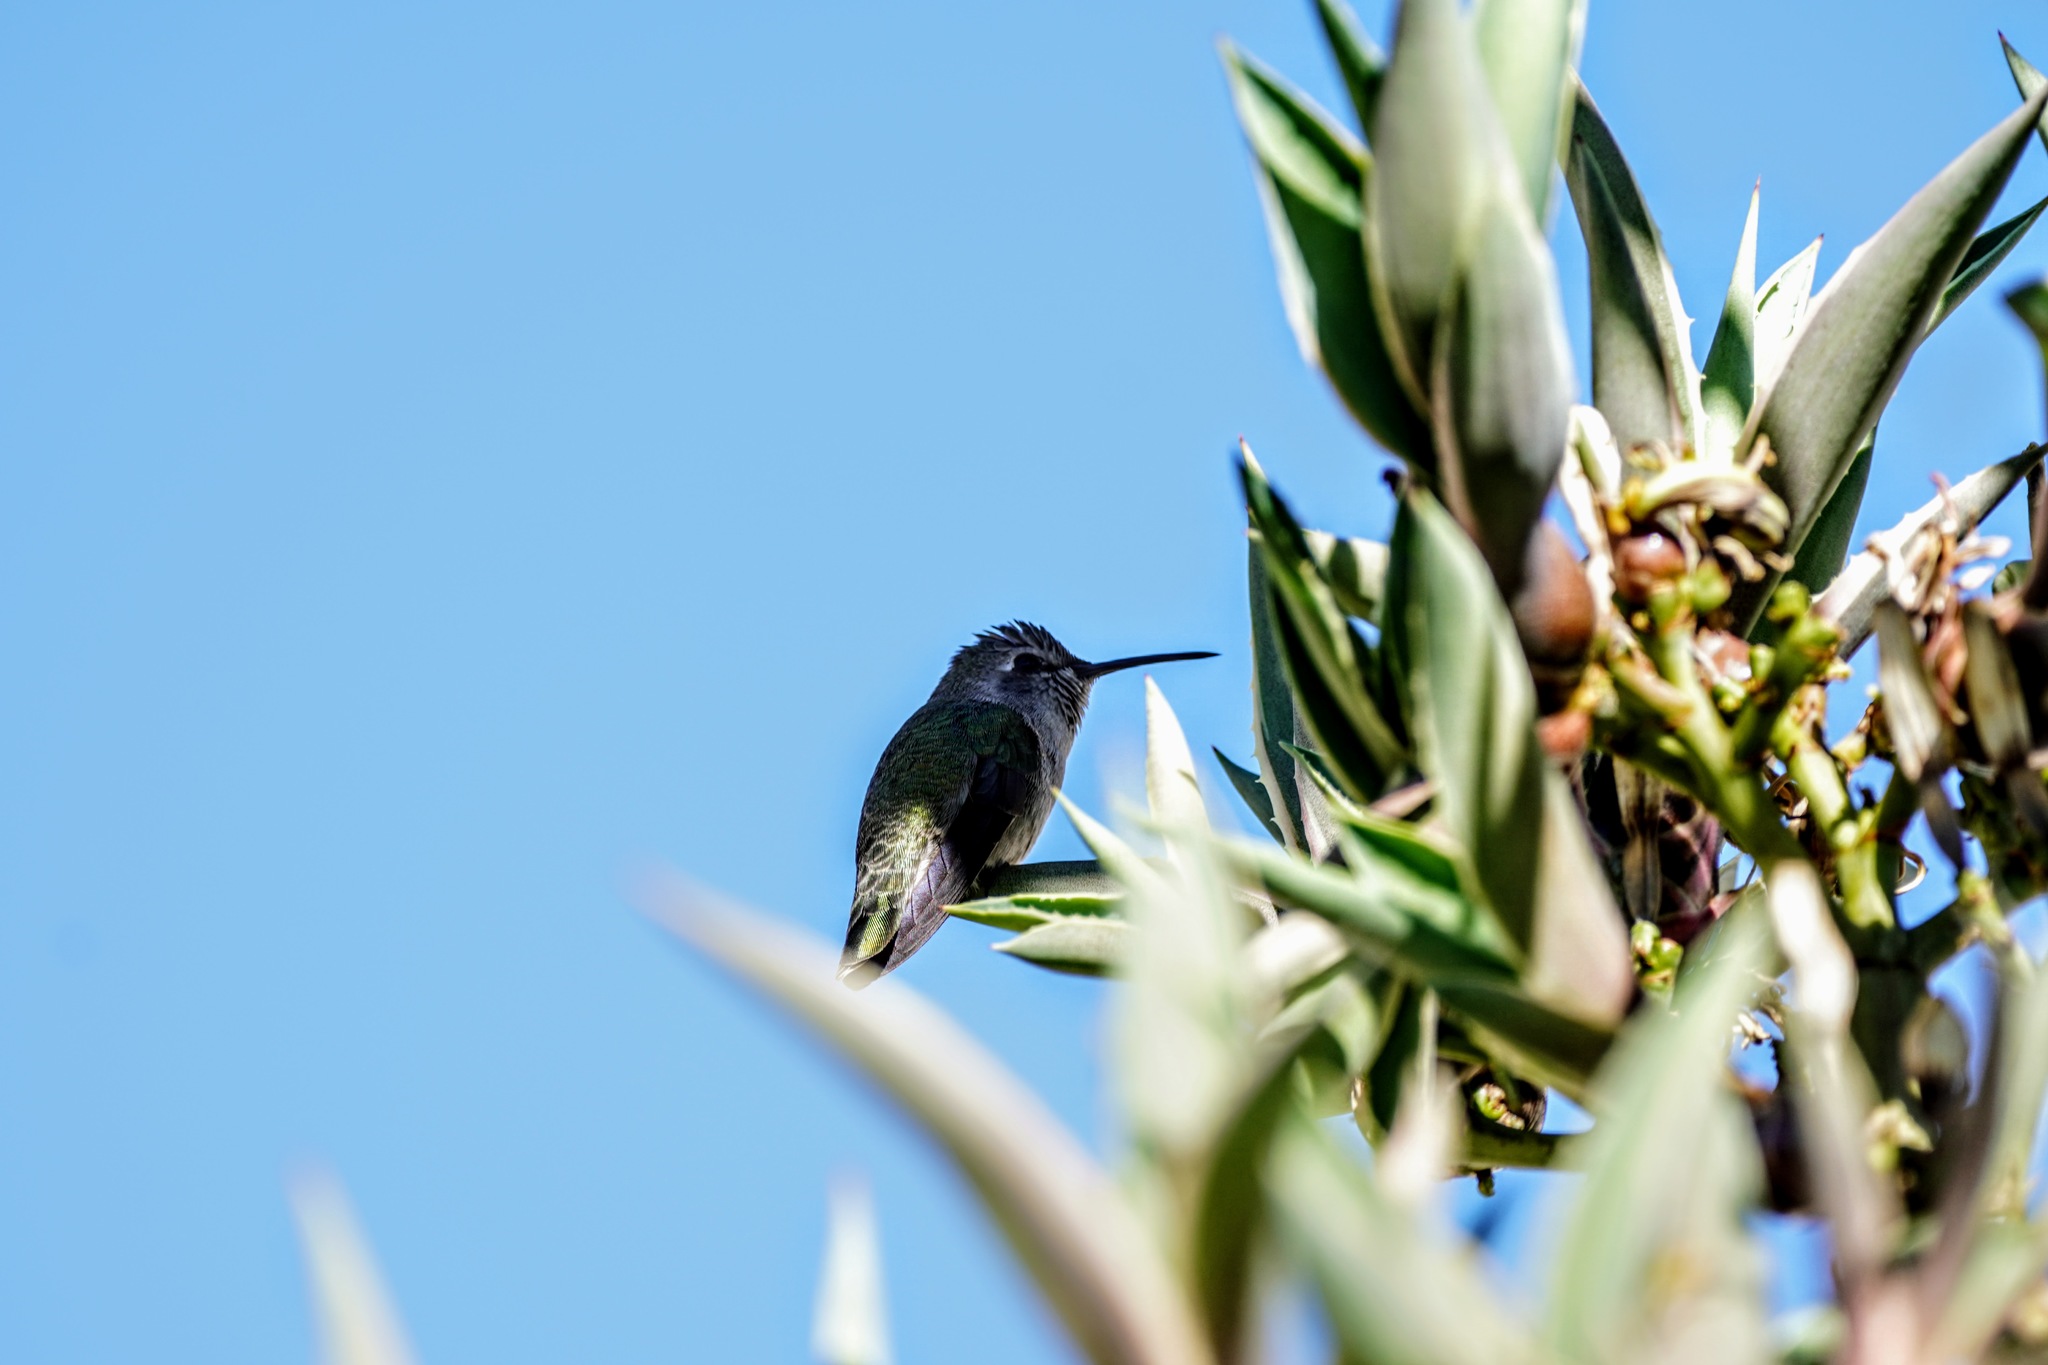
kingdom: Animalia
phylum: Chordata
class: Aves
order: Apodiformes
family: Trochilidae
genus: Calypte
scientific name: Calypte costae
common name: Costa's hummingbird
